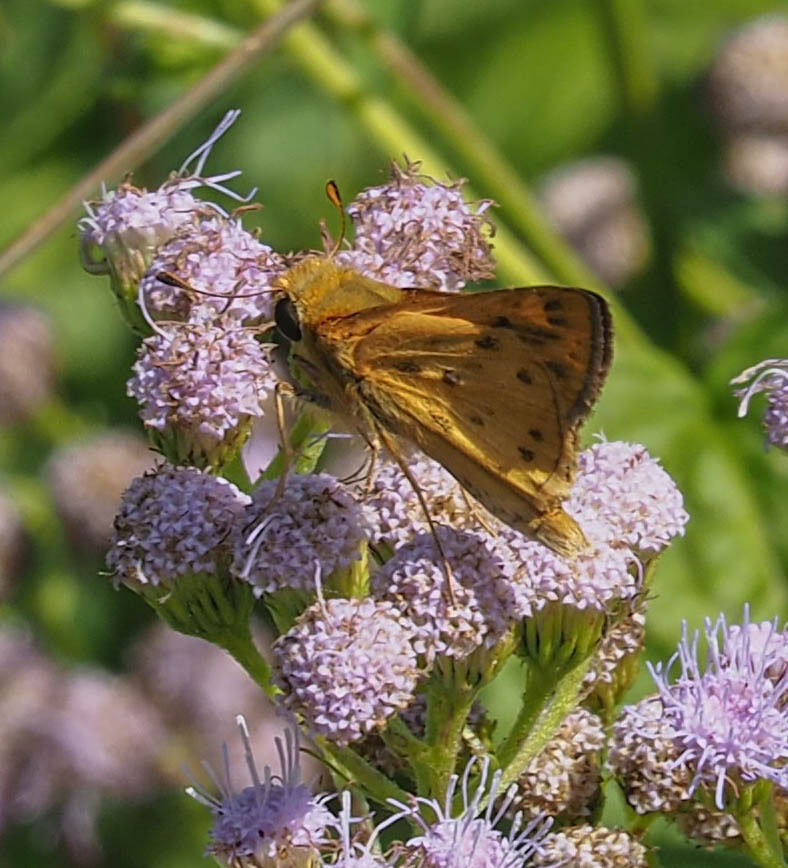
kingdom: Animalia
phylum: Arthropoda
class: Insecta
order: Lepidoptera
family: Hesperiidae
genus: Hylephila
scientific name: Hylephila phyleus
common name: Fiery skipper
